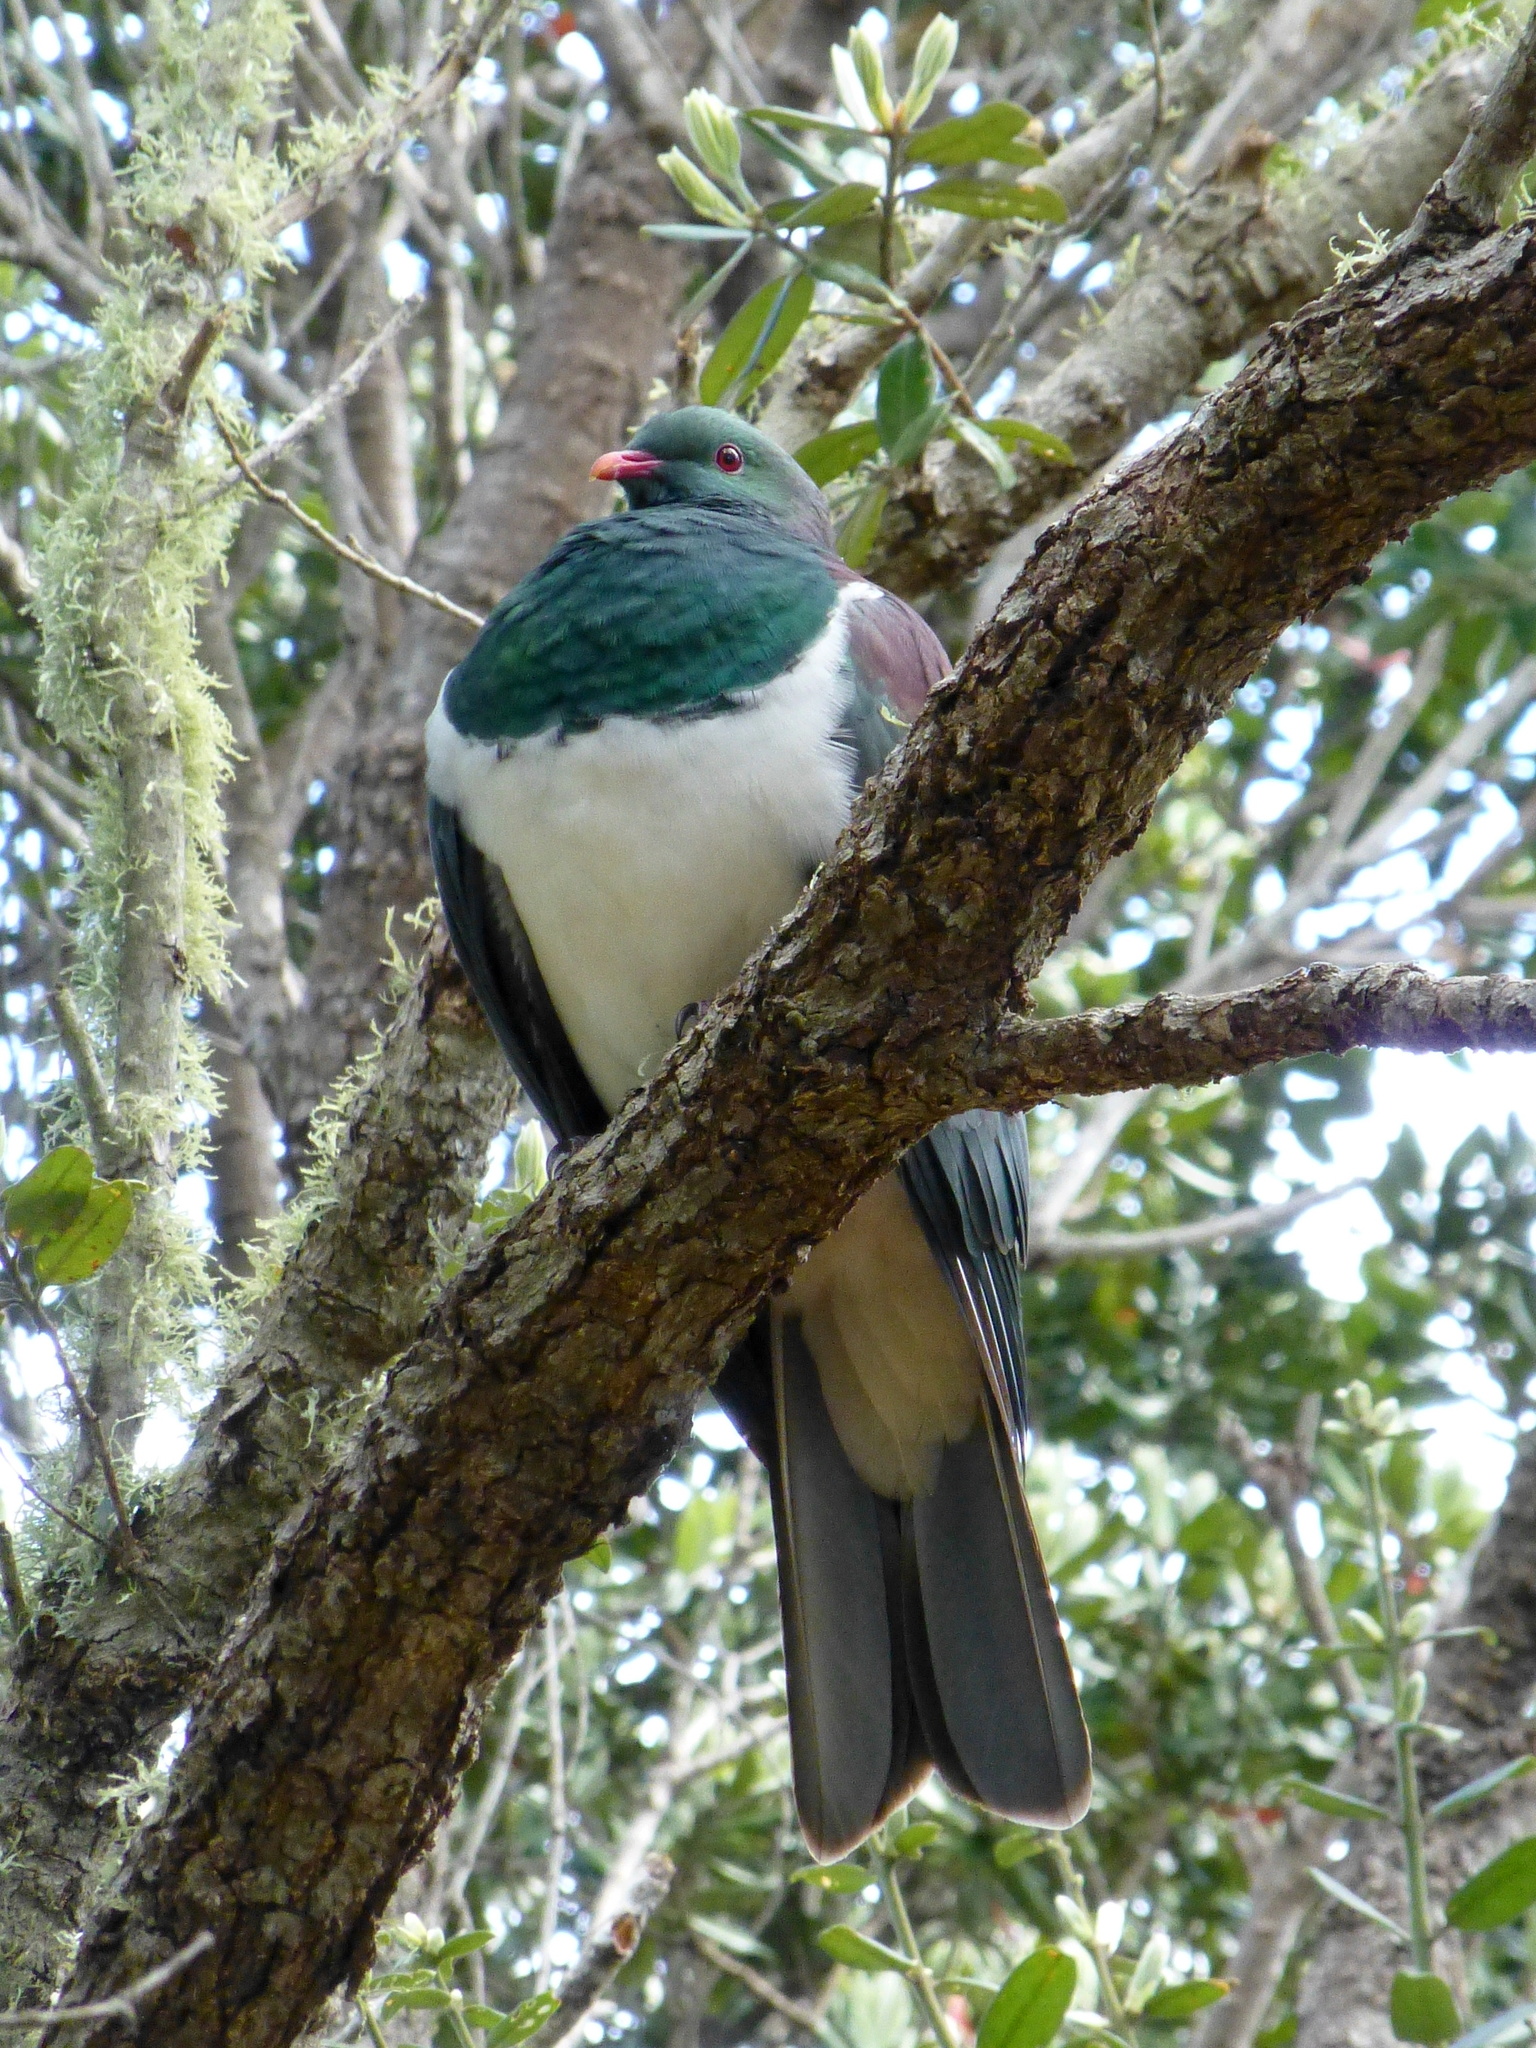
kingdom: Animalia
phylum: Chordata
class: Aves
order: Columbiformes
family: Columbidae
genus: Hemiphaga
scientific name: Hemiphaga novaeseelandiae
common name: New zealand pigeon
